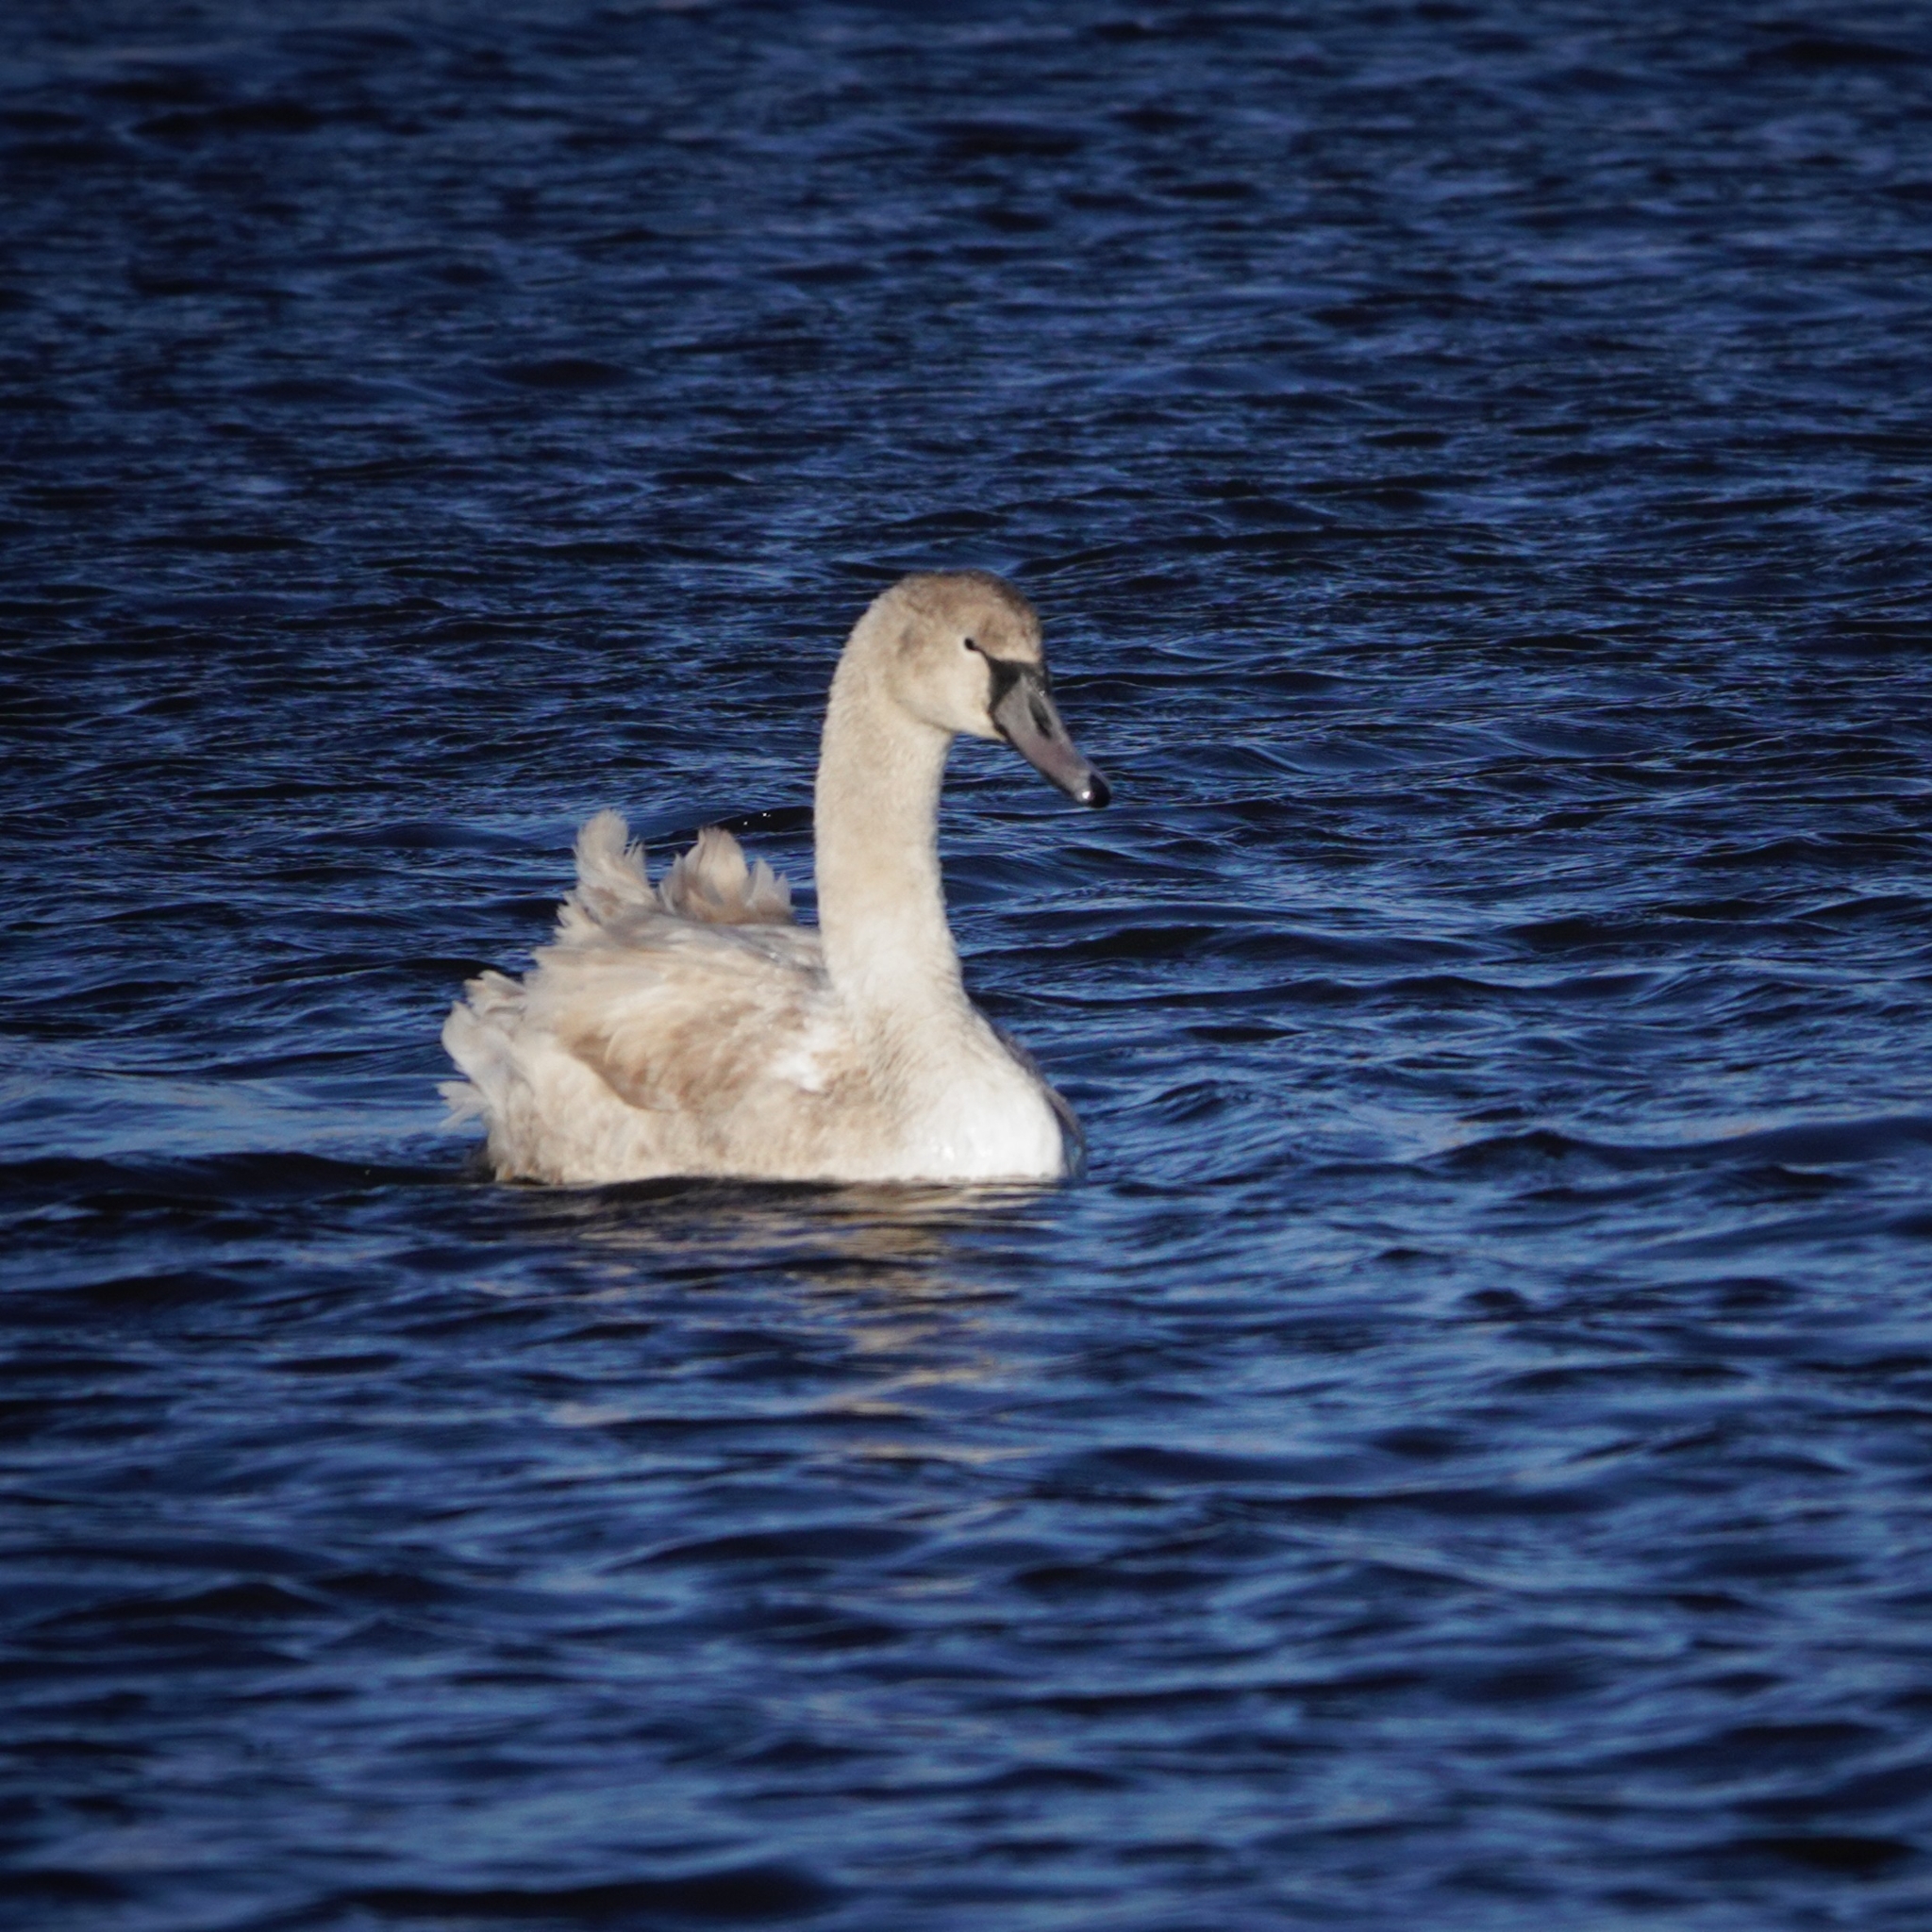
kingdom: Animalia
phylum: Chordata
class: Aves
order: Anseriformes
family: Anatidae
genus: Cygnus
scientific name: Cygnus olor
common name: Mute swan
